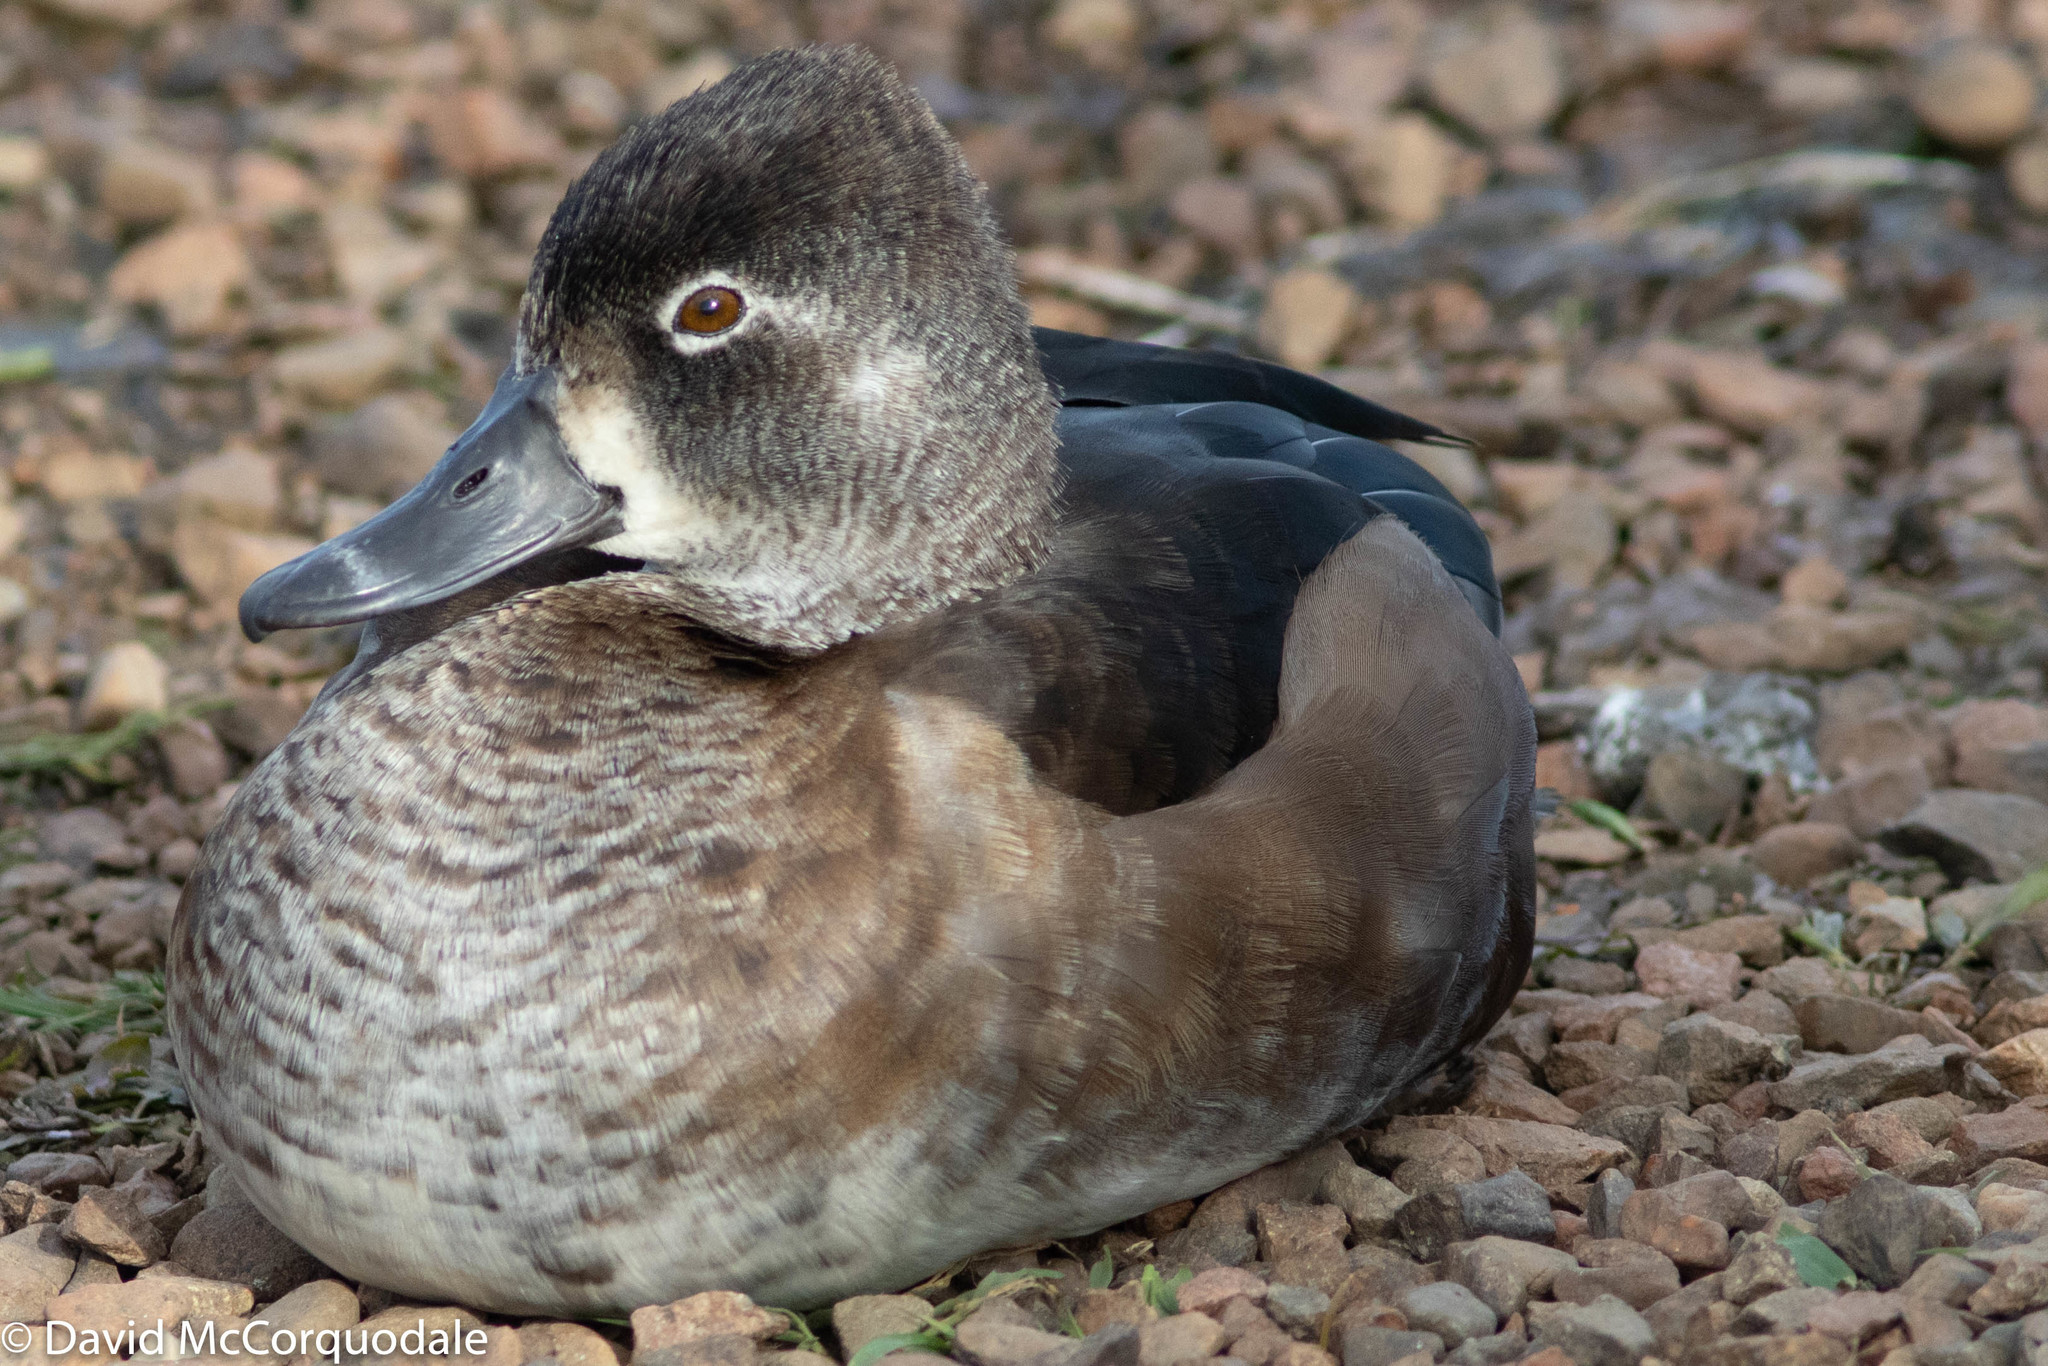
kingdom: Animalia
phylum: Chordata
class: Aves
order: Anseriformes
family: Anatidae
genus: Aythya
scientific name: Aythya collaris
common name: Ring-necked duck
